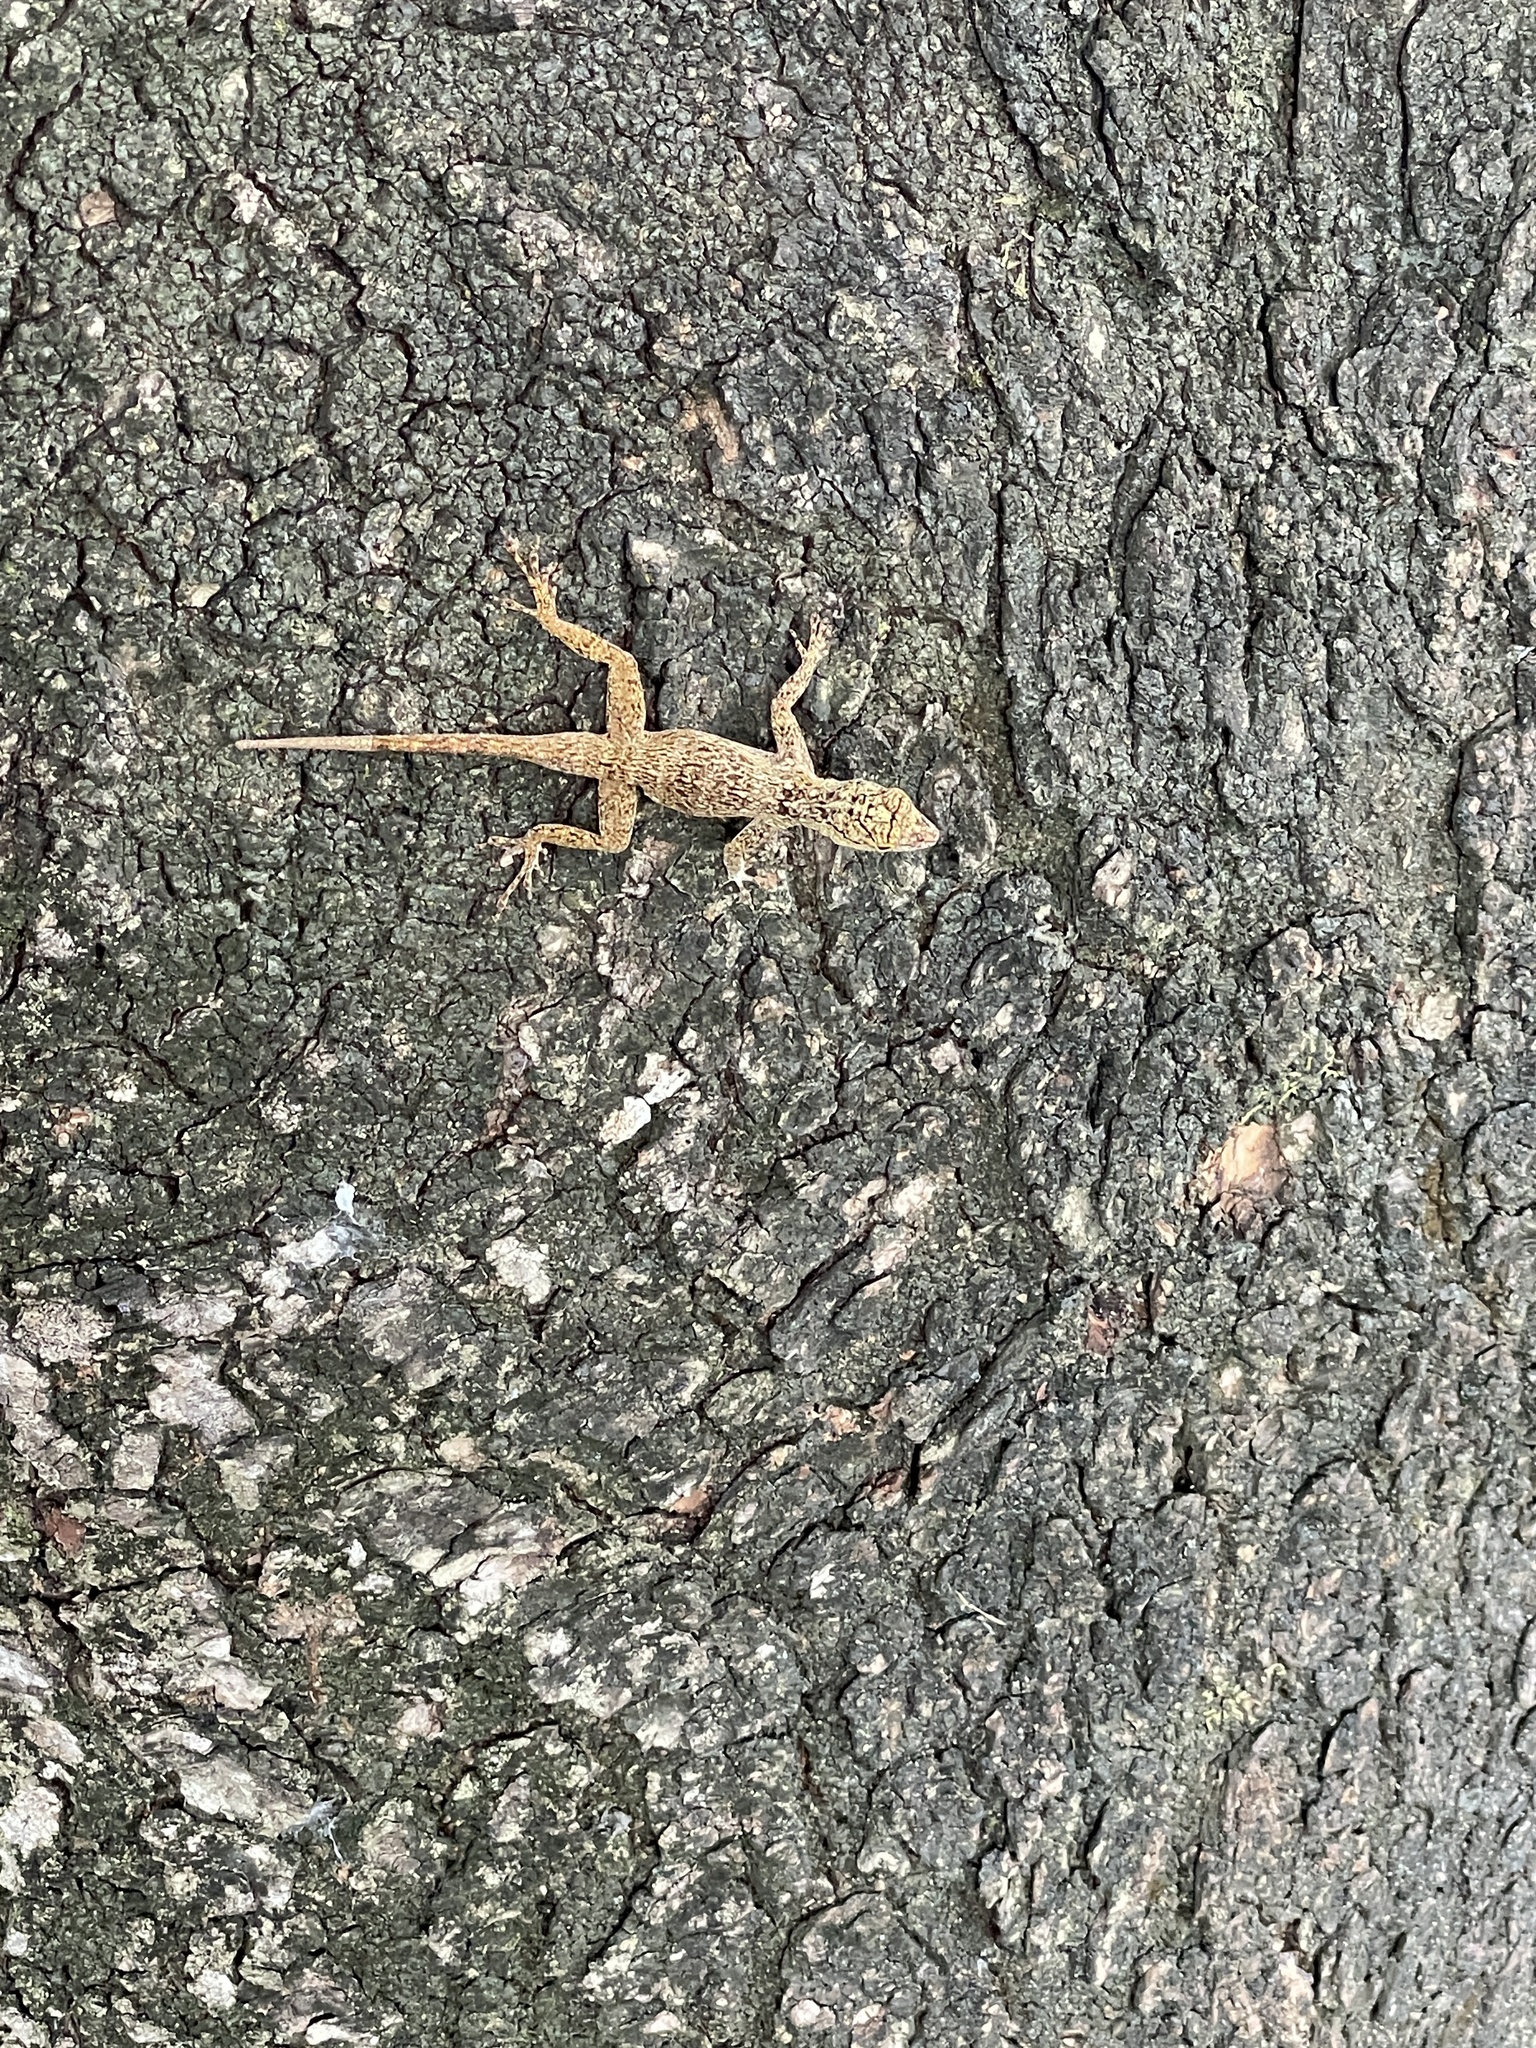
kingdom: Animalia
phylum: Chordata
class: Squamata
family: Dactyloidae
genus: Anolis
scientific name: Anolis distichus
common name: Bark anole
